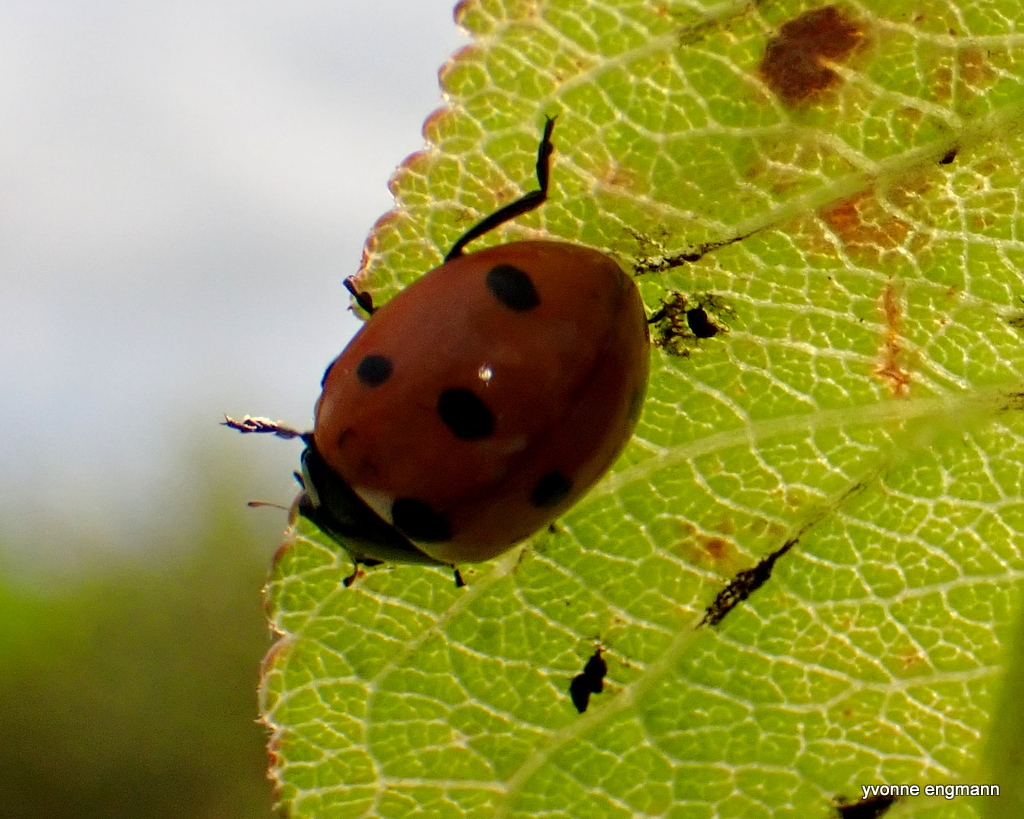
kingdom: Animalia
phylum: Arthropoda
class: Insecta
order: Coleoptera
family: Coccinellidae
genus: Coccinella
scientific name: Coccinella septempunctata
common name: Sevenspotted lady beetle
